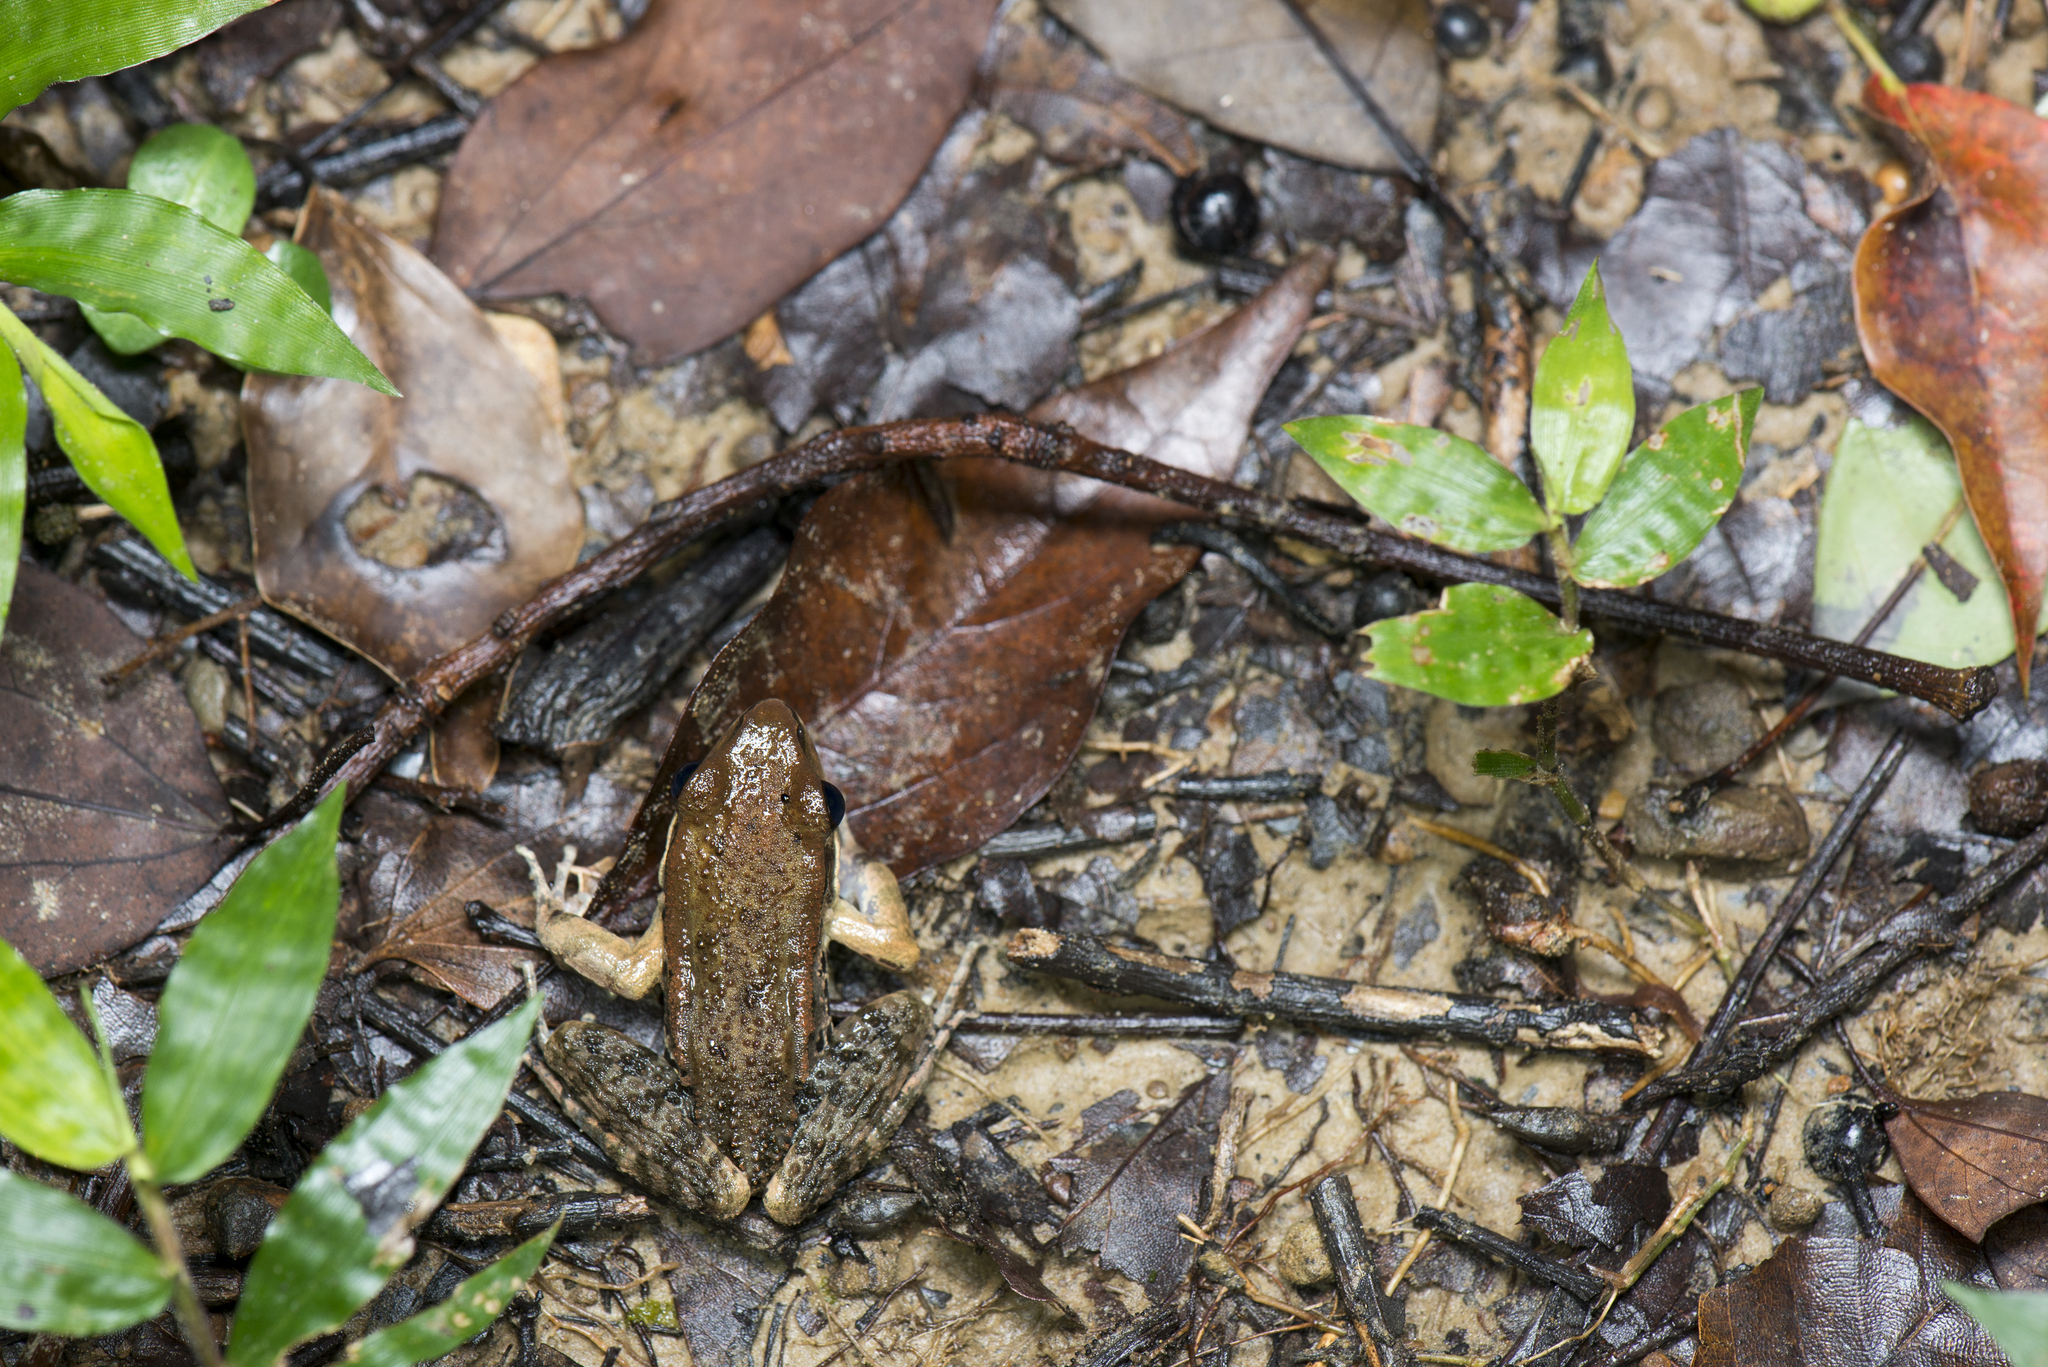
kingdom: Animalia
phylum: Chordata
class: Amphibia
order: Anura
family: Ranidae
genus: Hylarana
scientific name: Hylarana latouchii
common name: Broad-folded frog
